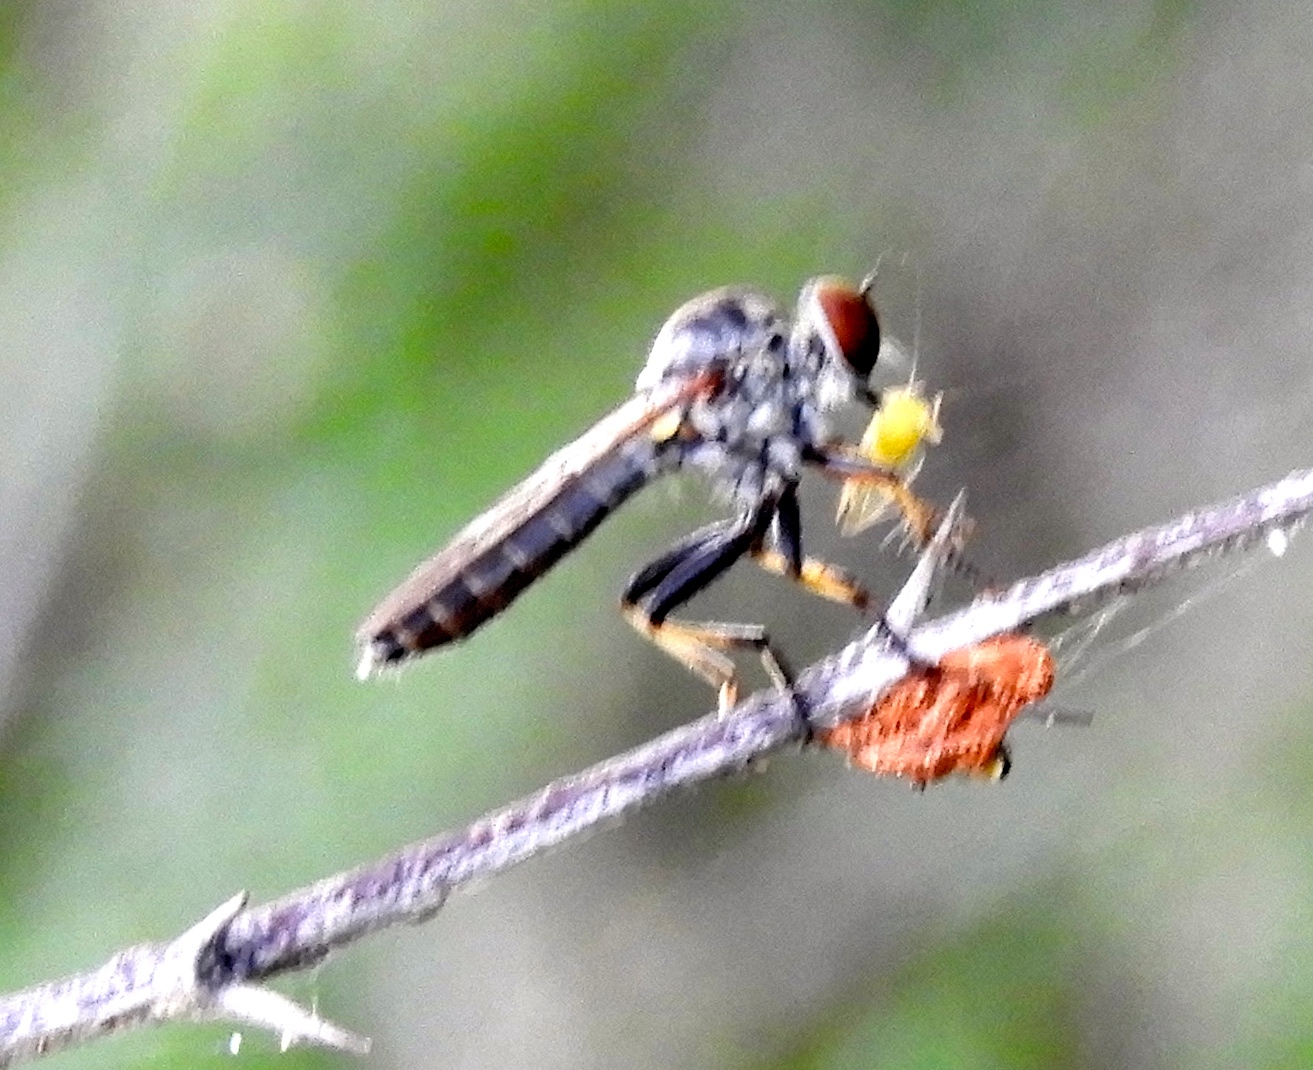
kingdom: Animalia
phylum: Arthropoda
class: Insecta
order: Diptera
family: Asilidae
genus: Ommatius
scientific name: Ommatius
